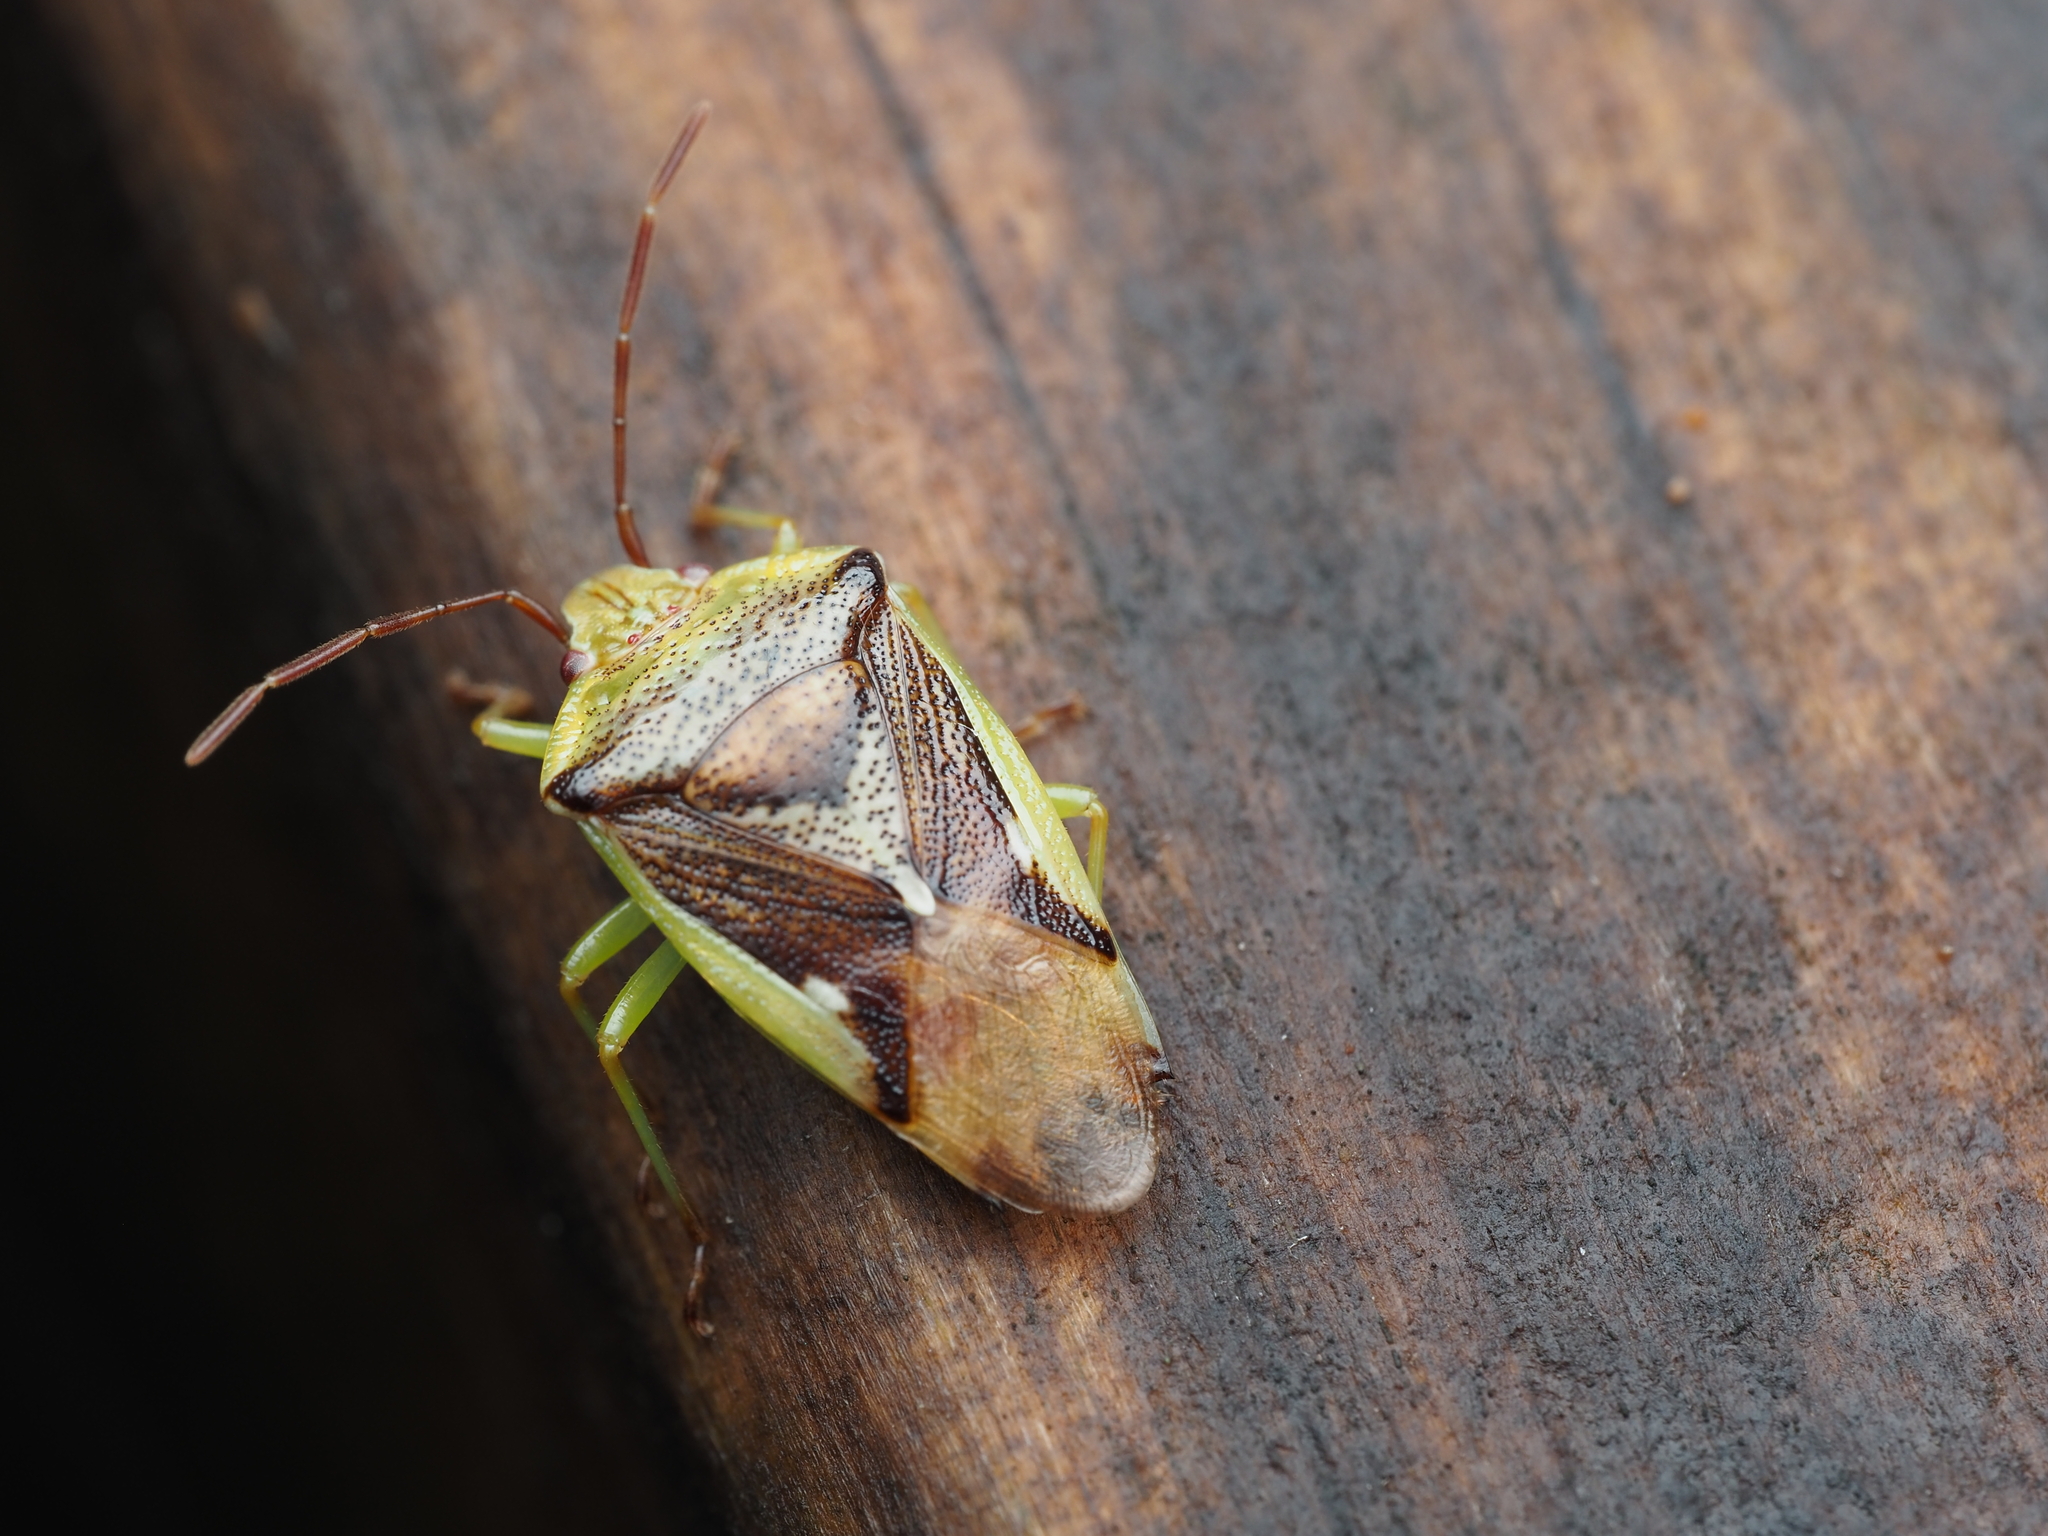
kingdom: Animalia
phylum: Arthropoda
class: Insecta
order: Hemiptera
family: Acanthosomatidae
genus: Oncacontias
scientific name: Oncacontias vittatus
